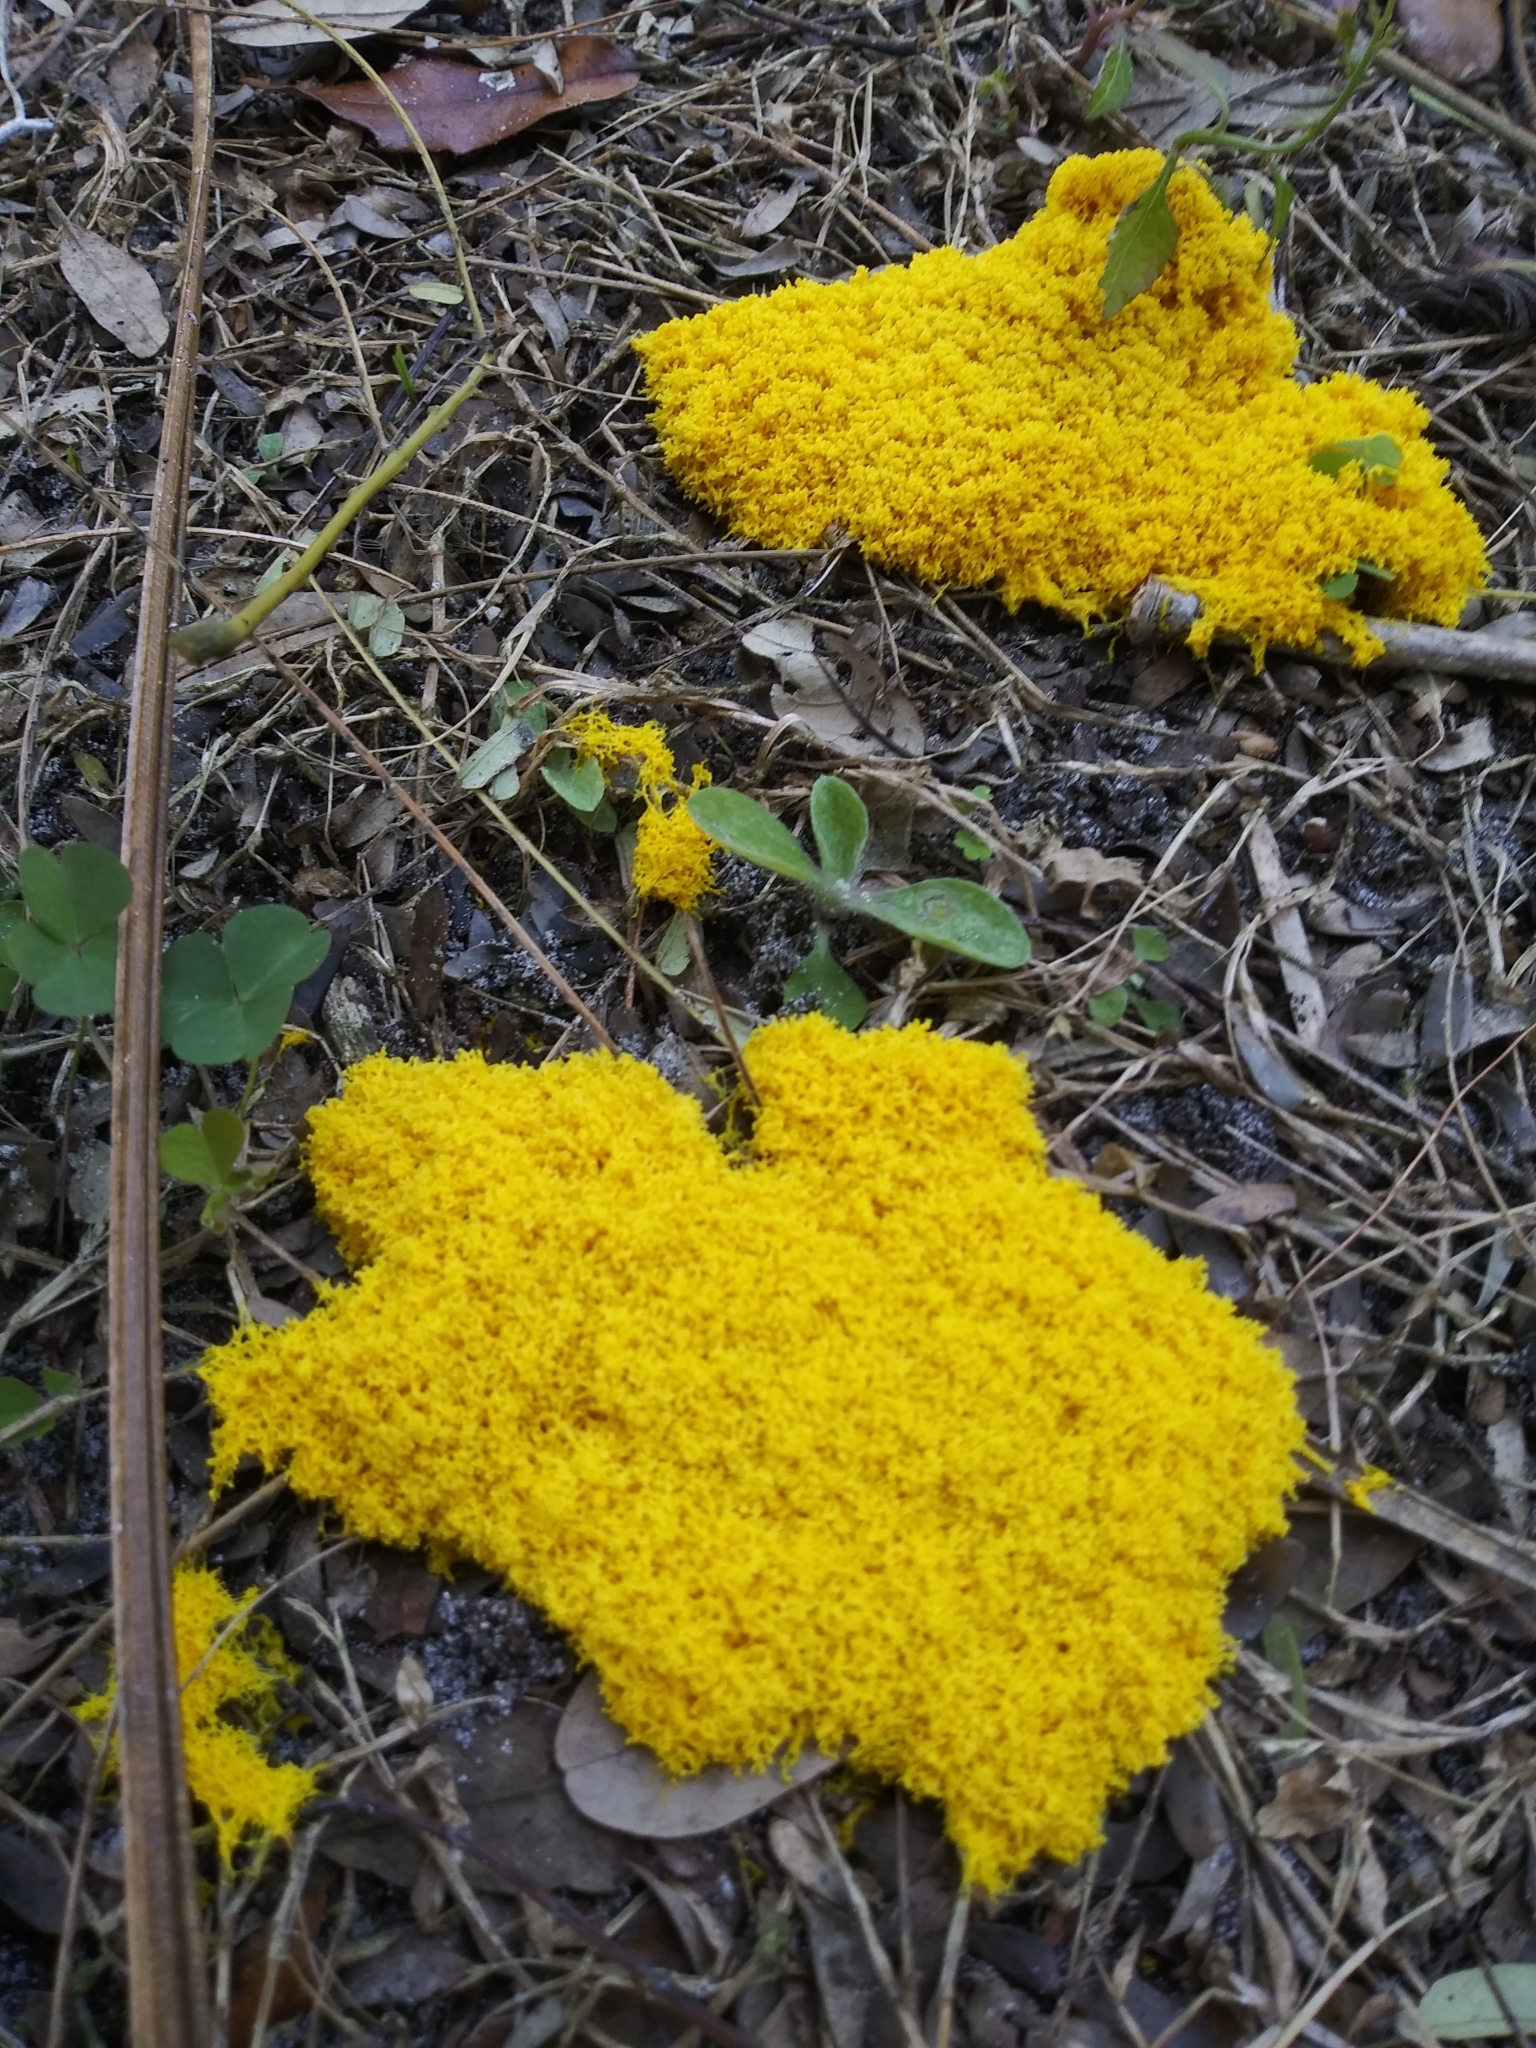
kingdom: Protozoa
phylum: Mycetozoa
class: Myxomycetes
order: Physarales
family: Physaraceae
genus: Fuligo
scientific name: Fuligo septica
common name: Dog vomit slime mold
